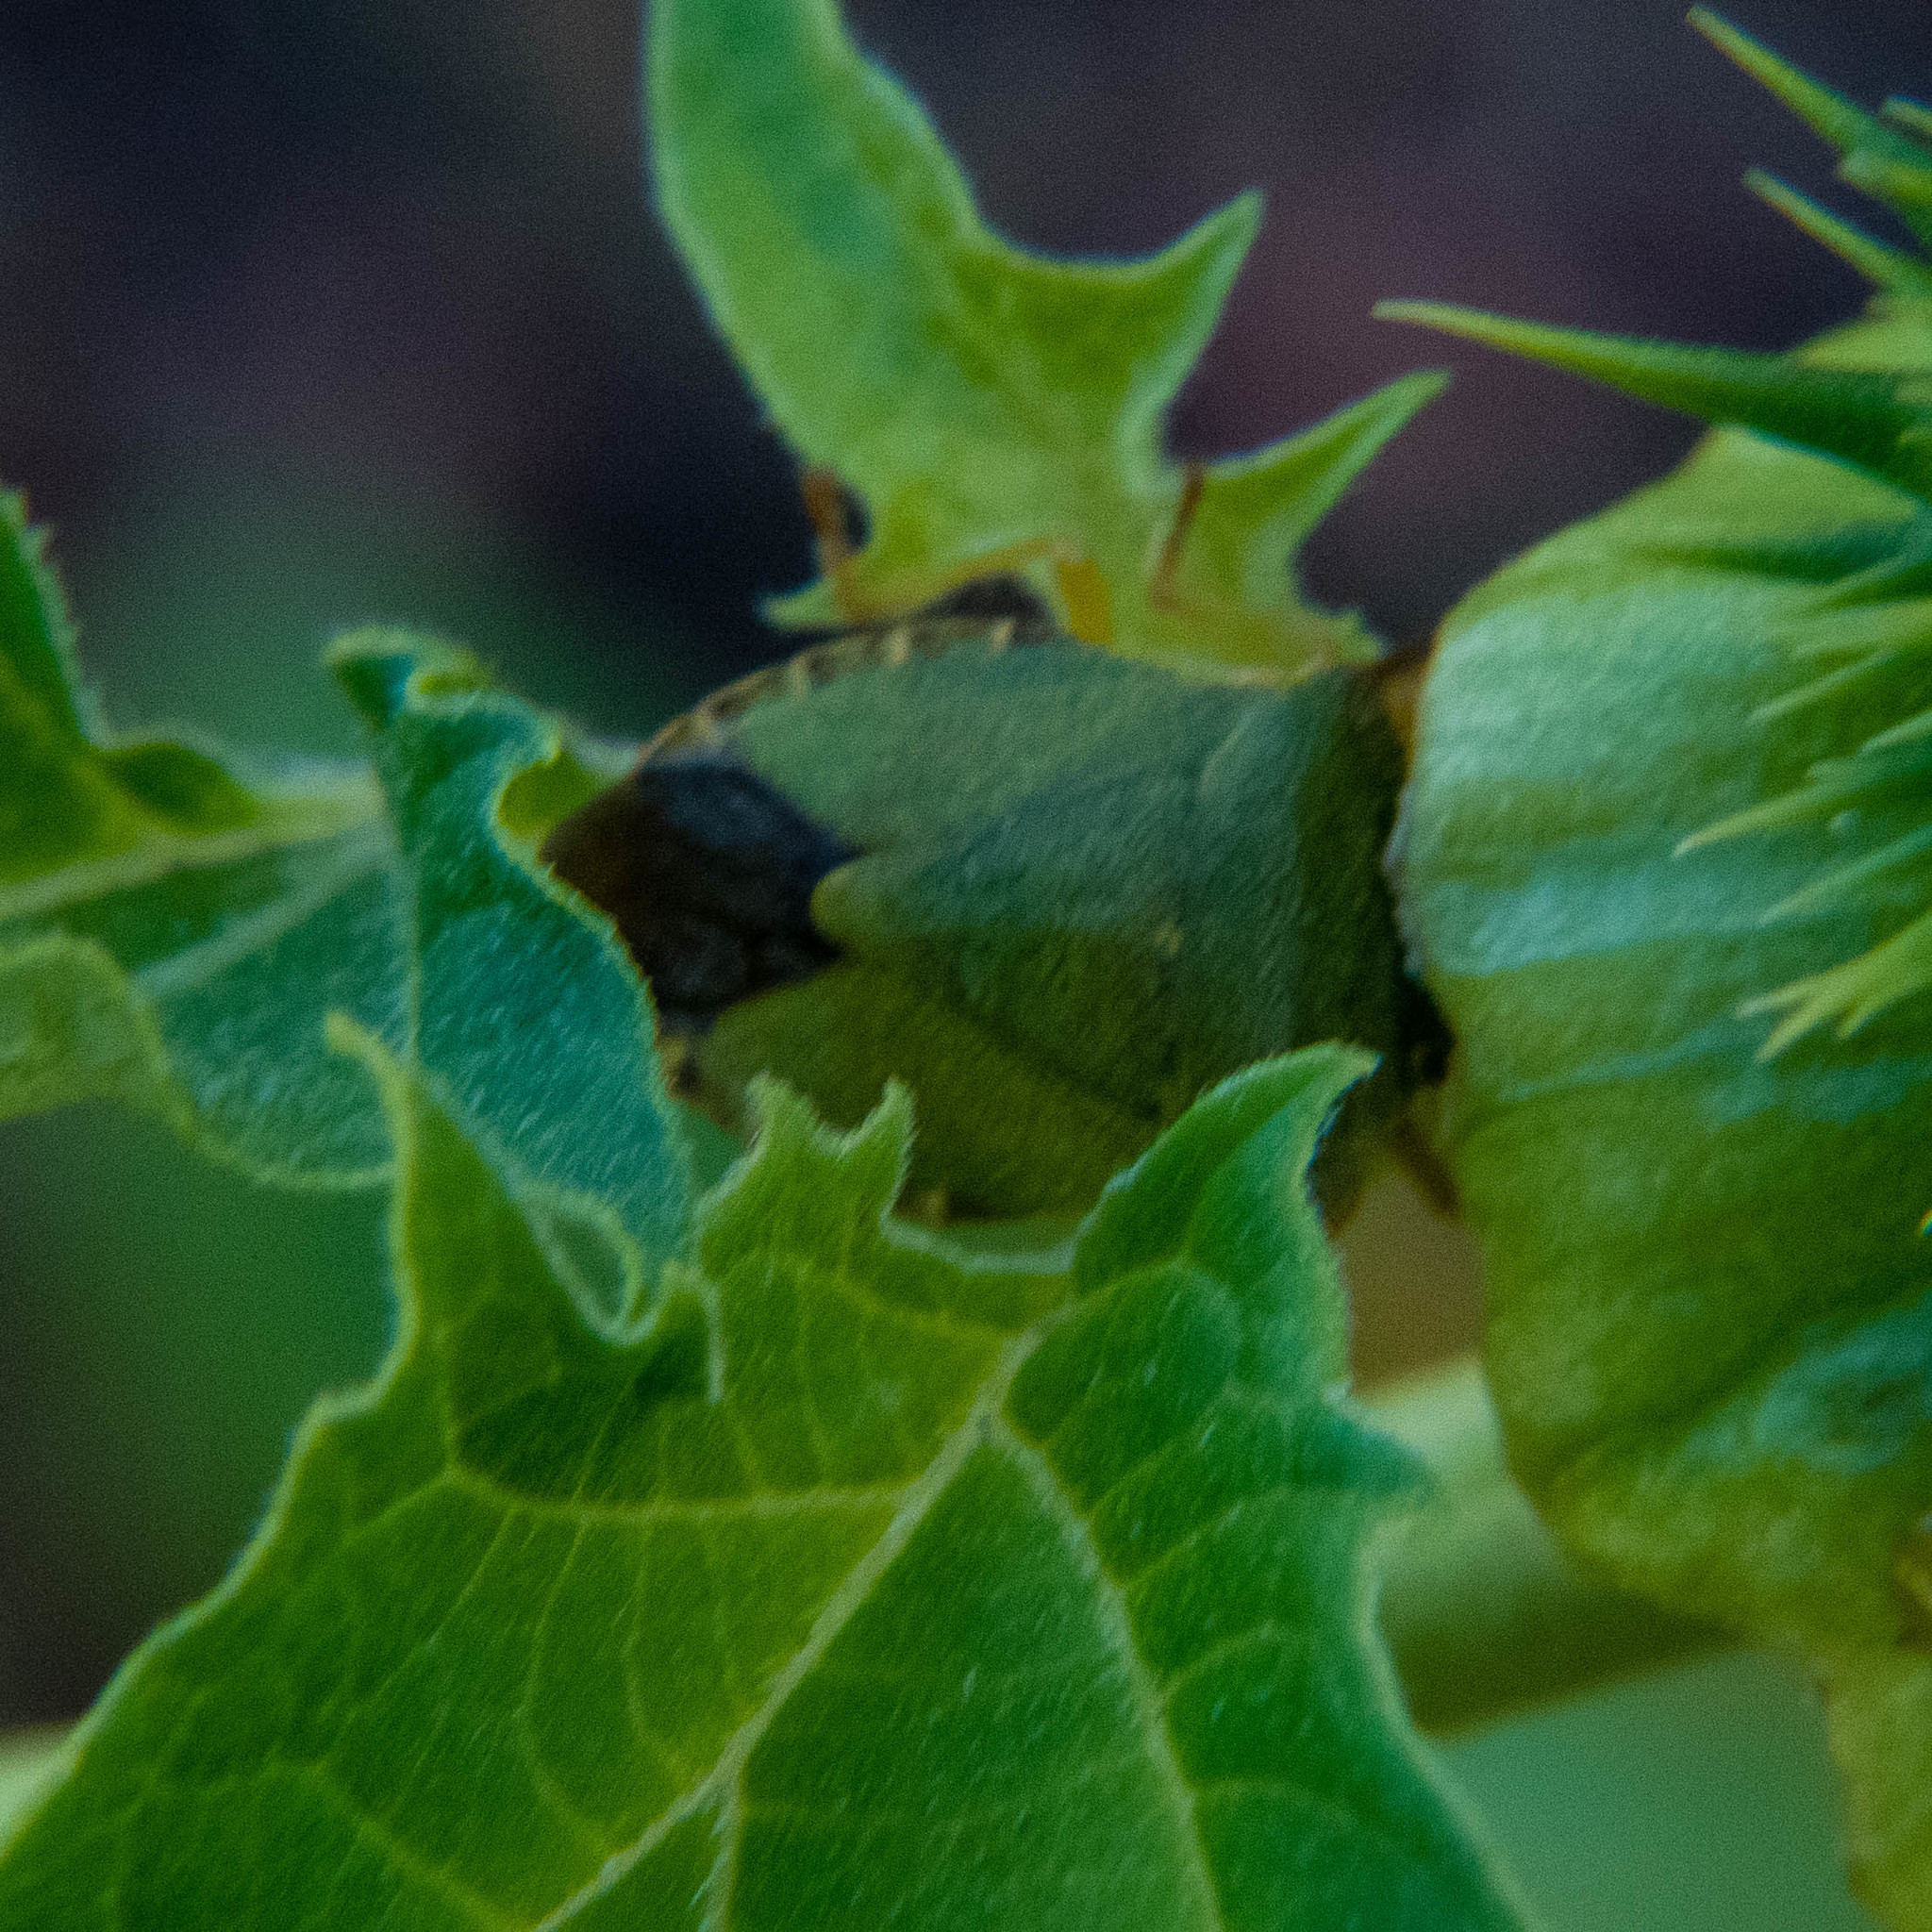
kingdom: Animalia
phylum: Arthropoda
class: Insecta
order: Hemiptera
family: Pentatomidae
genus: Palomena
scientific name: Palomena prasina
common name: Green shieldbug
